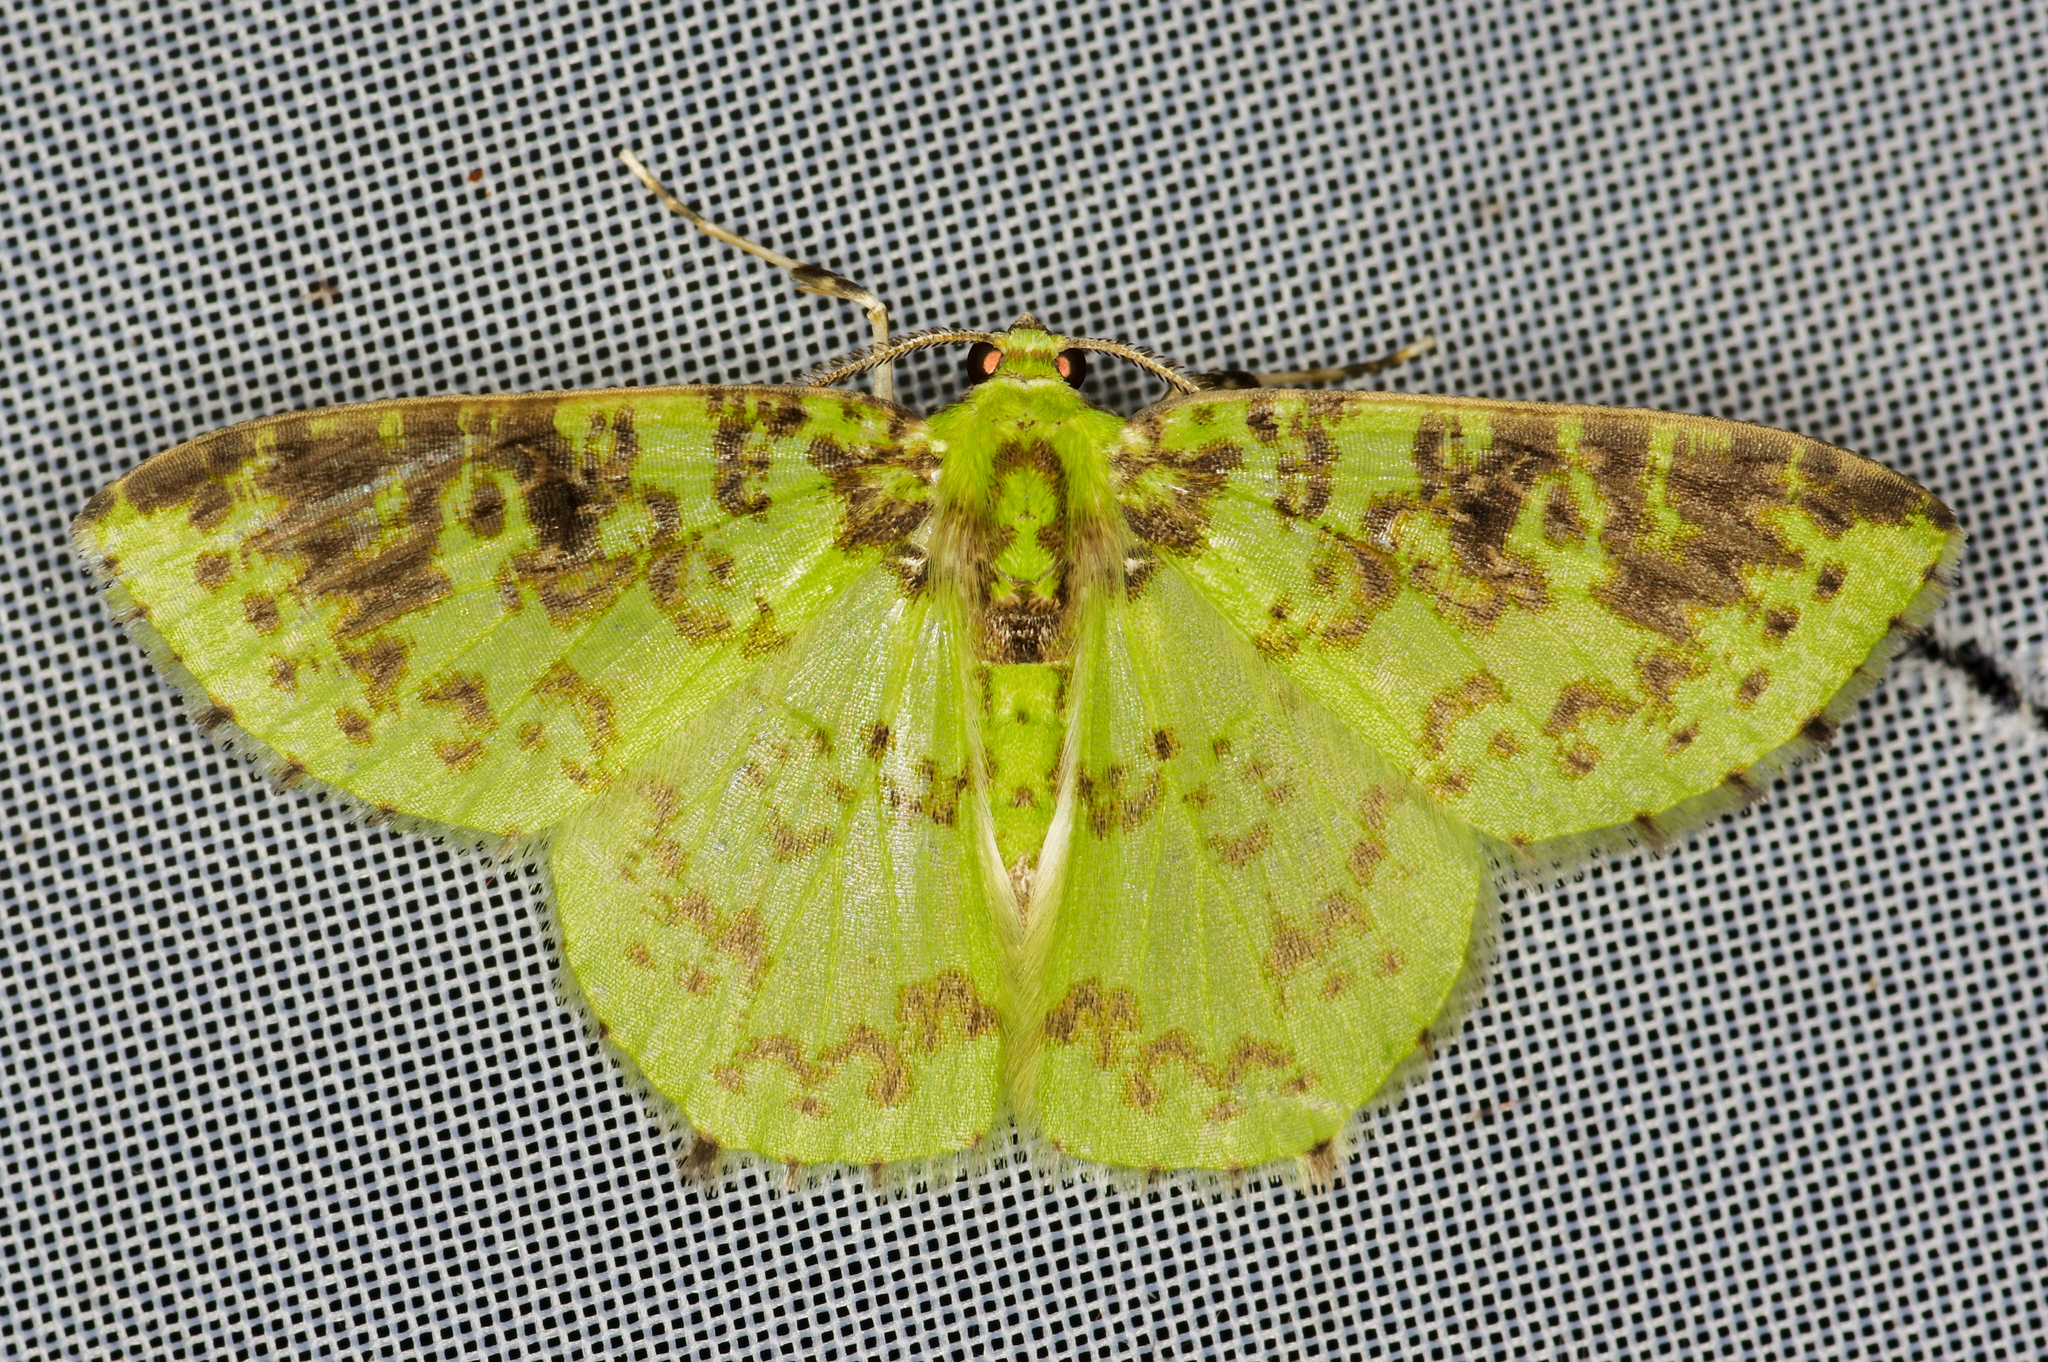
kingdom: Animalia
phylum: Arthropoda
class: Insecta
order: Lepidoptera
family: Geometridae
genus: Nemoria
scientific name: Nemoria scriptaria
